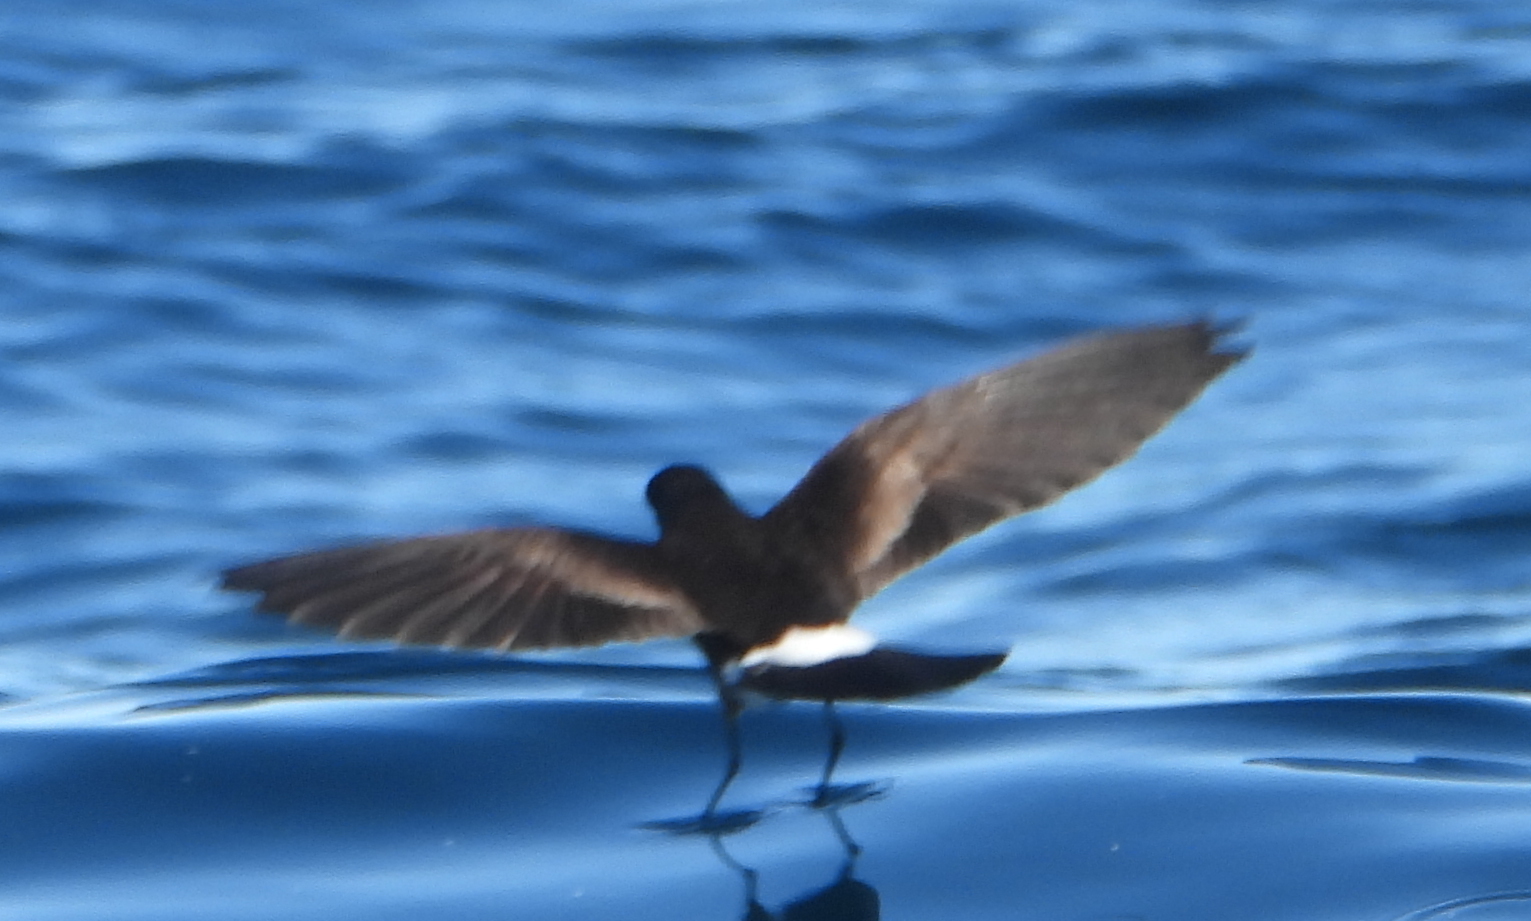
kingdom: Animalia
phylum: Chordata
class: Aves
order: Procellariiformes
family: Hydrobatidae
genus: Oceanites
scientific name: Oceanites oceanicus
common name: Wilson's storm petrel
